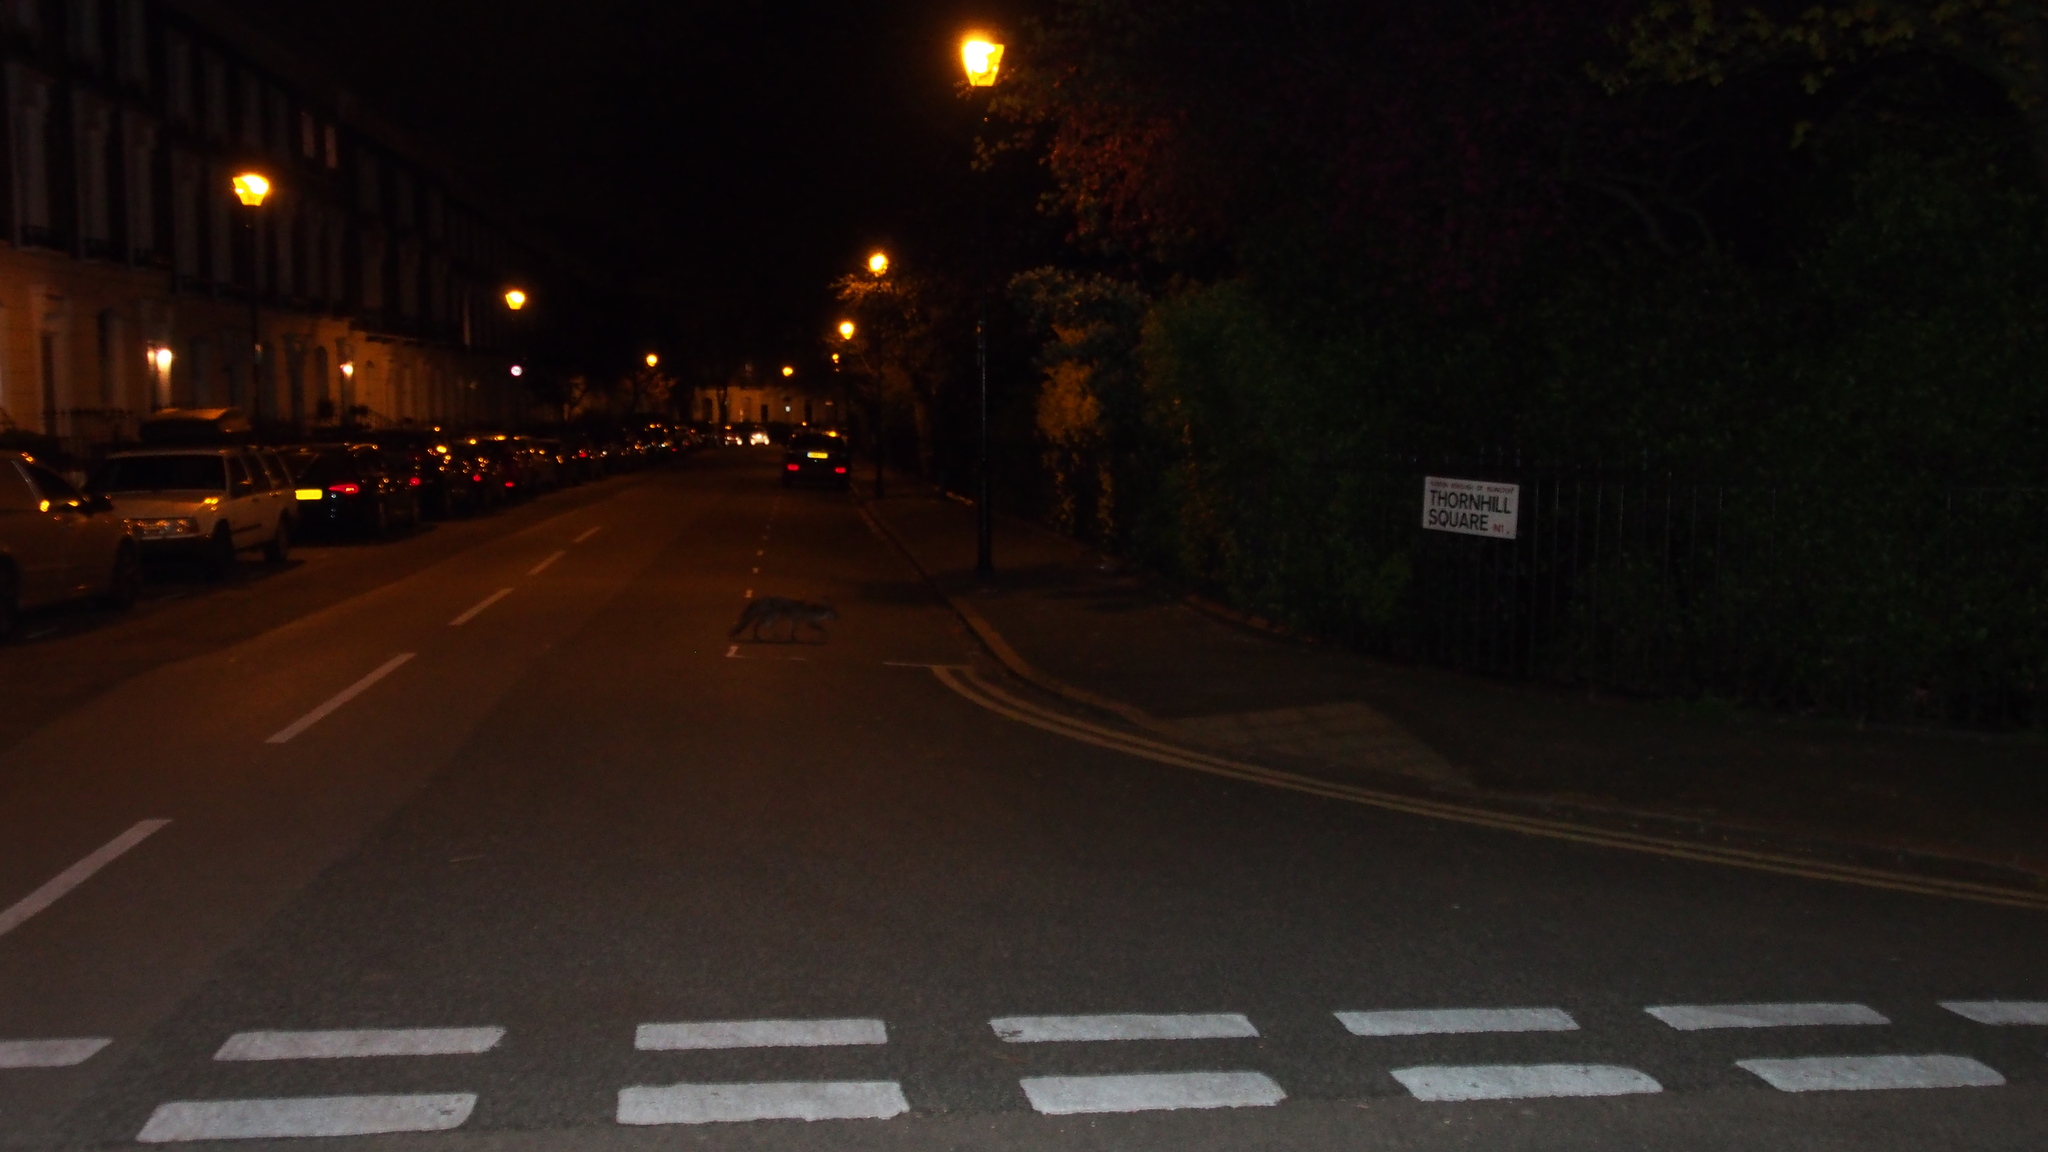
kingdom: Animalia
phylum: Chordata
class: Mammalia
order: Carnivora
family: Canidae
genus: Vulpes
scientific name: Vulpes vulpes
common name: Red fox
